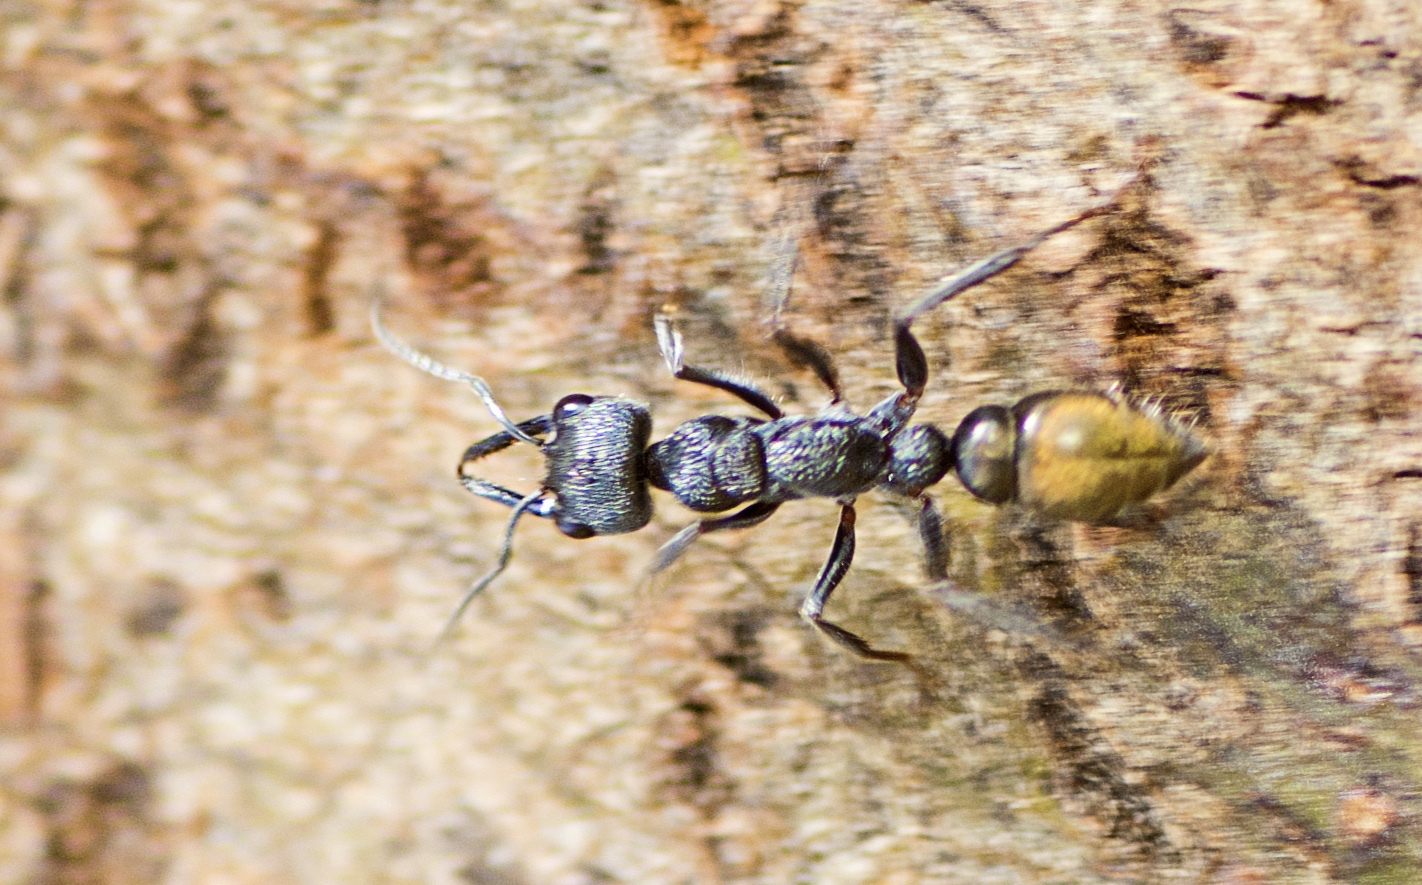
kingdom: Animalia
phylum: Arthropoda
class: Insecta
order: Hymenoptera
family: Formicidae
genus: Myrmecia
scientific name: Myrmecia piliventris
